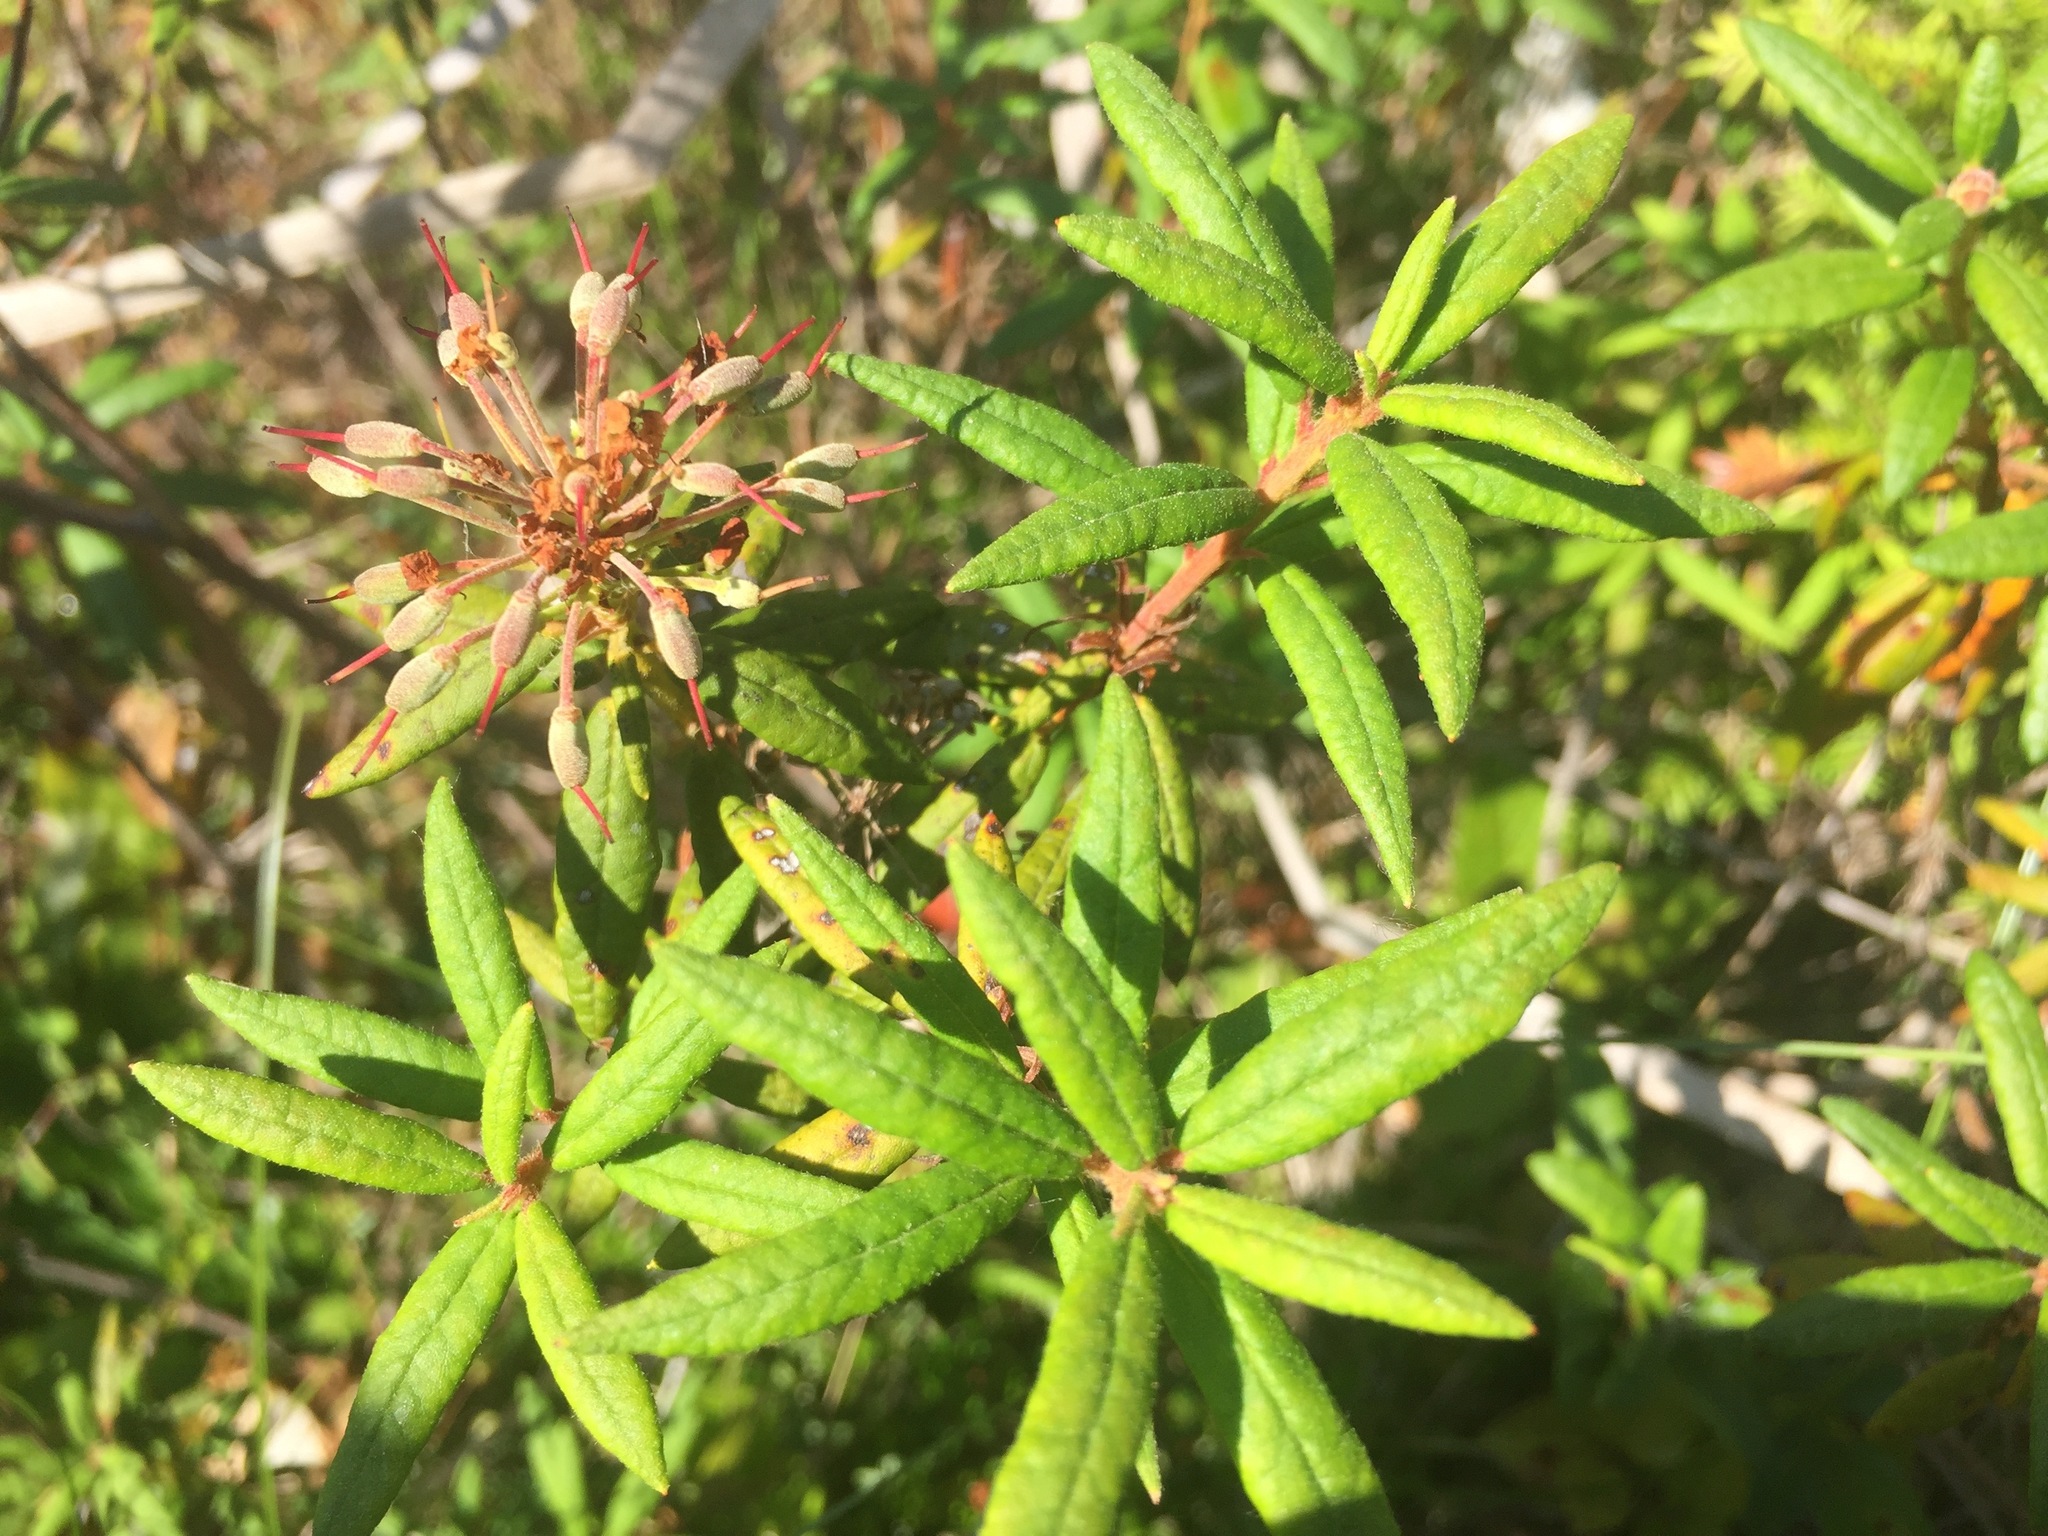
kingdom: Plantae
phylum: Tracheophyta
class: Magnoliopsida
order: Ericales
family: Ericaceae
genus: Rhododendron
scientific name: Rhododendron groenlandicum
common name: Bog labrador tea
